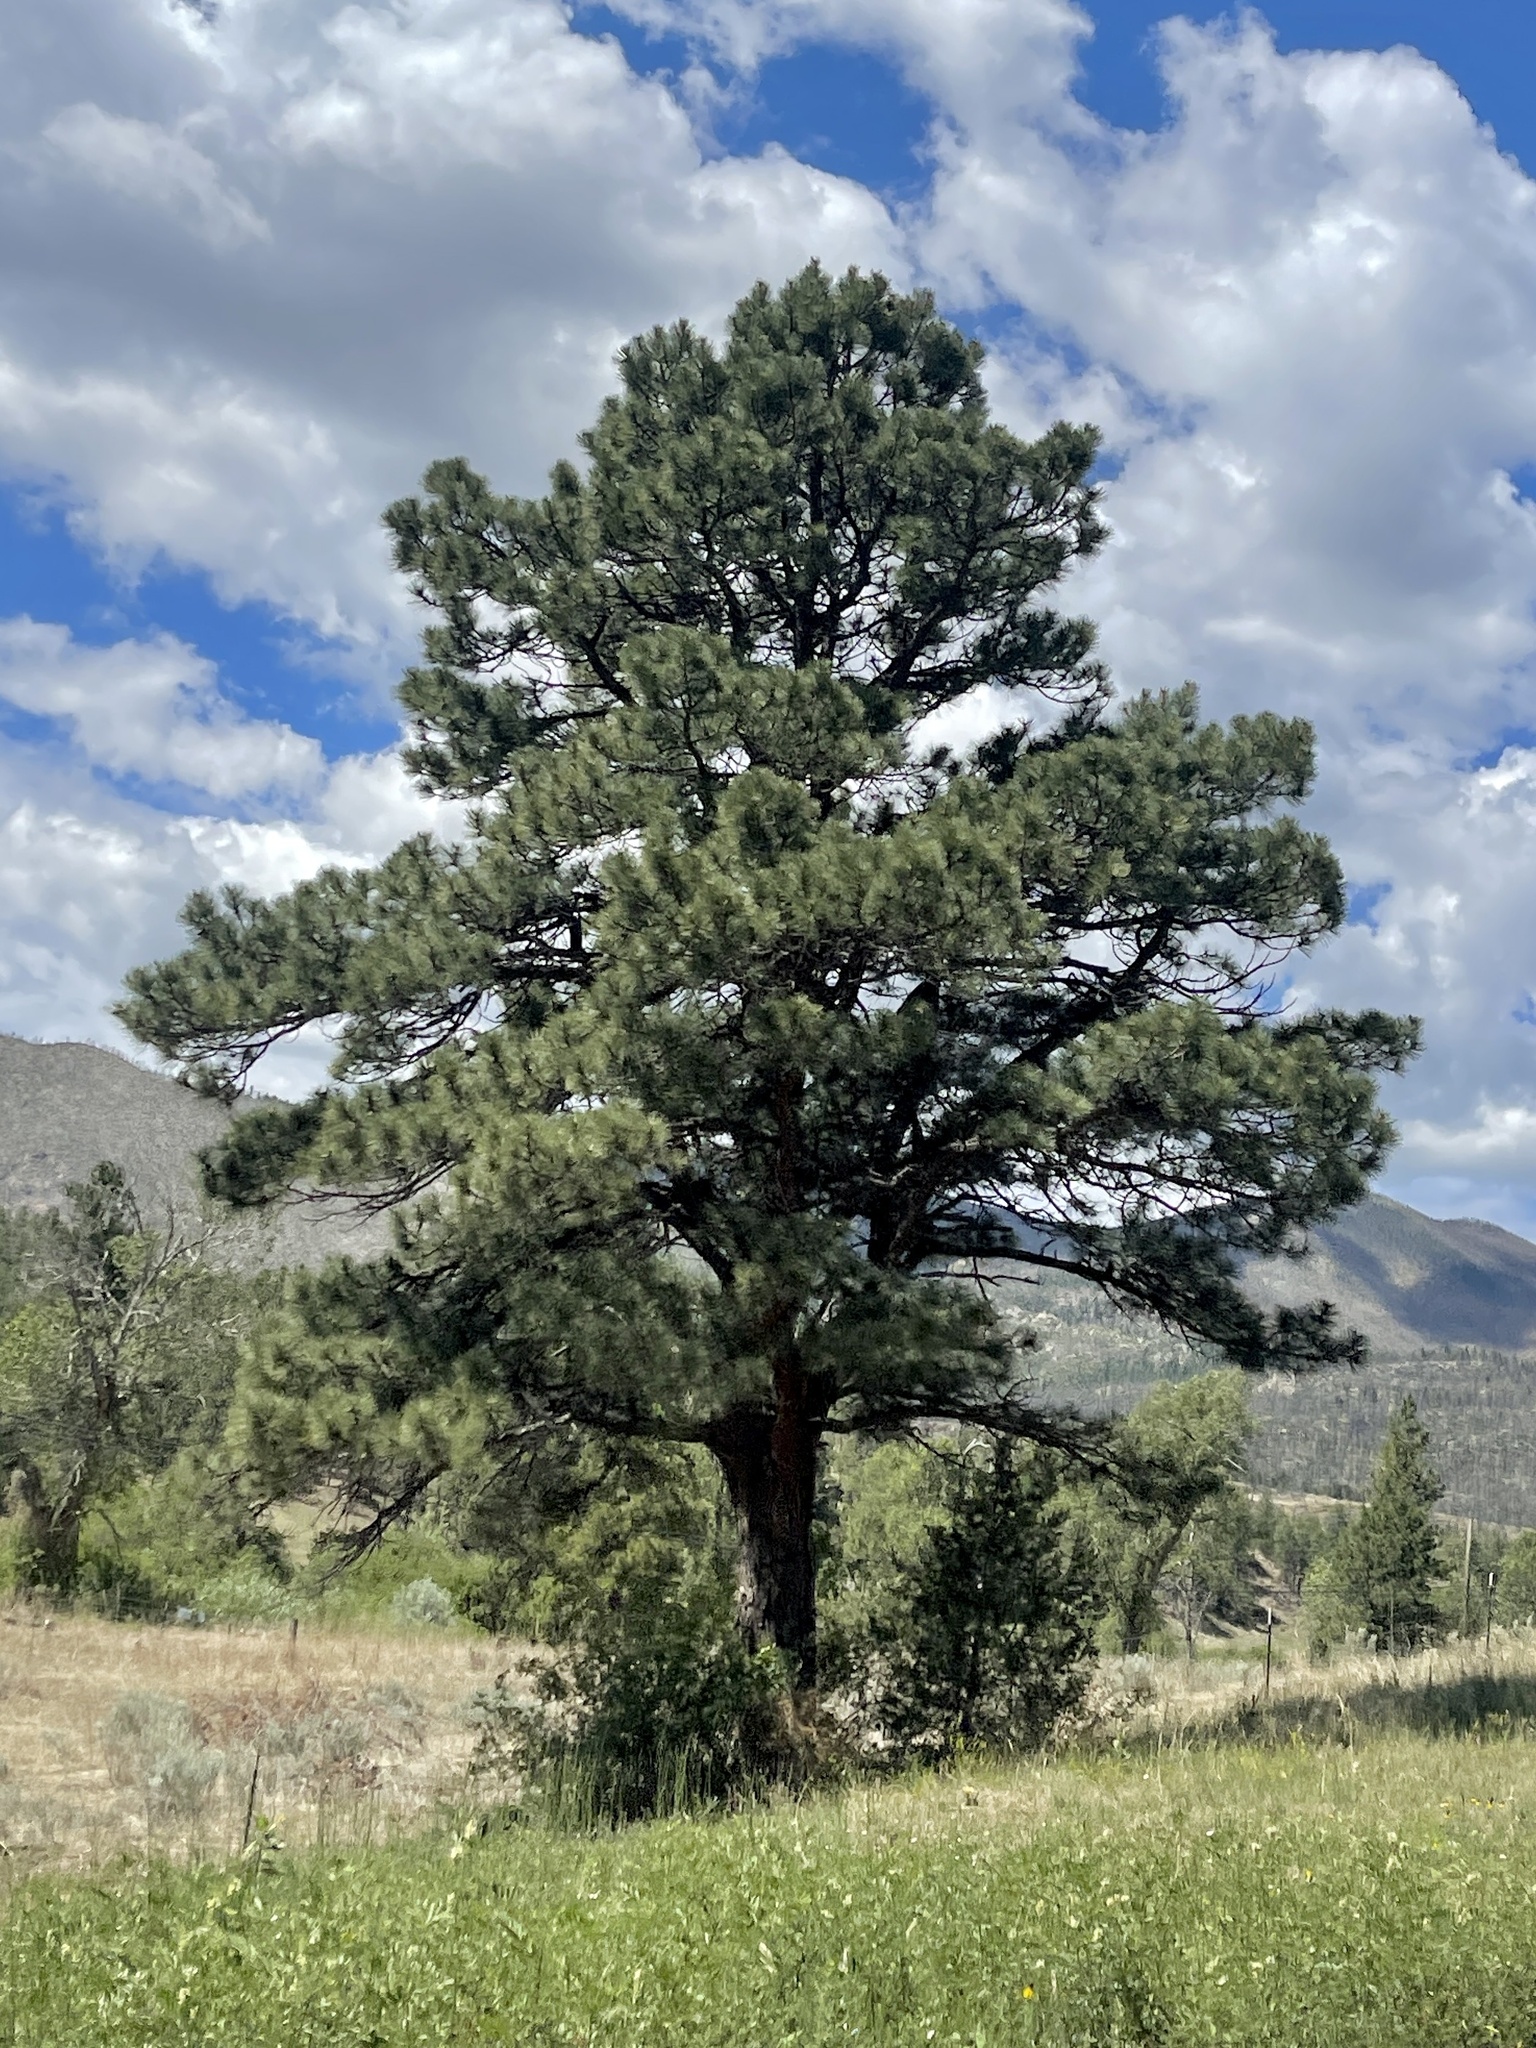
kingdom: Plantae
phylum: Tracheophyta
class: Pinopsida
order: Pinales
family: Pinaceae
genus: Pinus
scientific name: Pinus ponderosa
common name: Western yellow-pine
